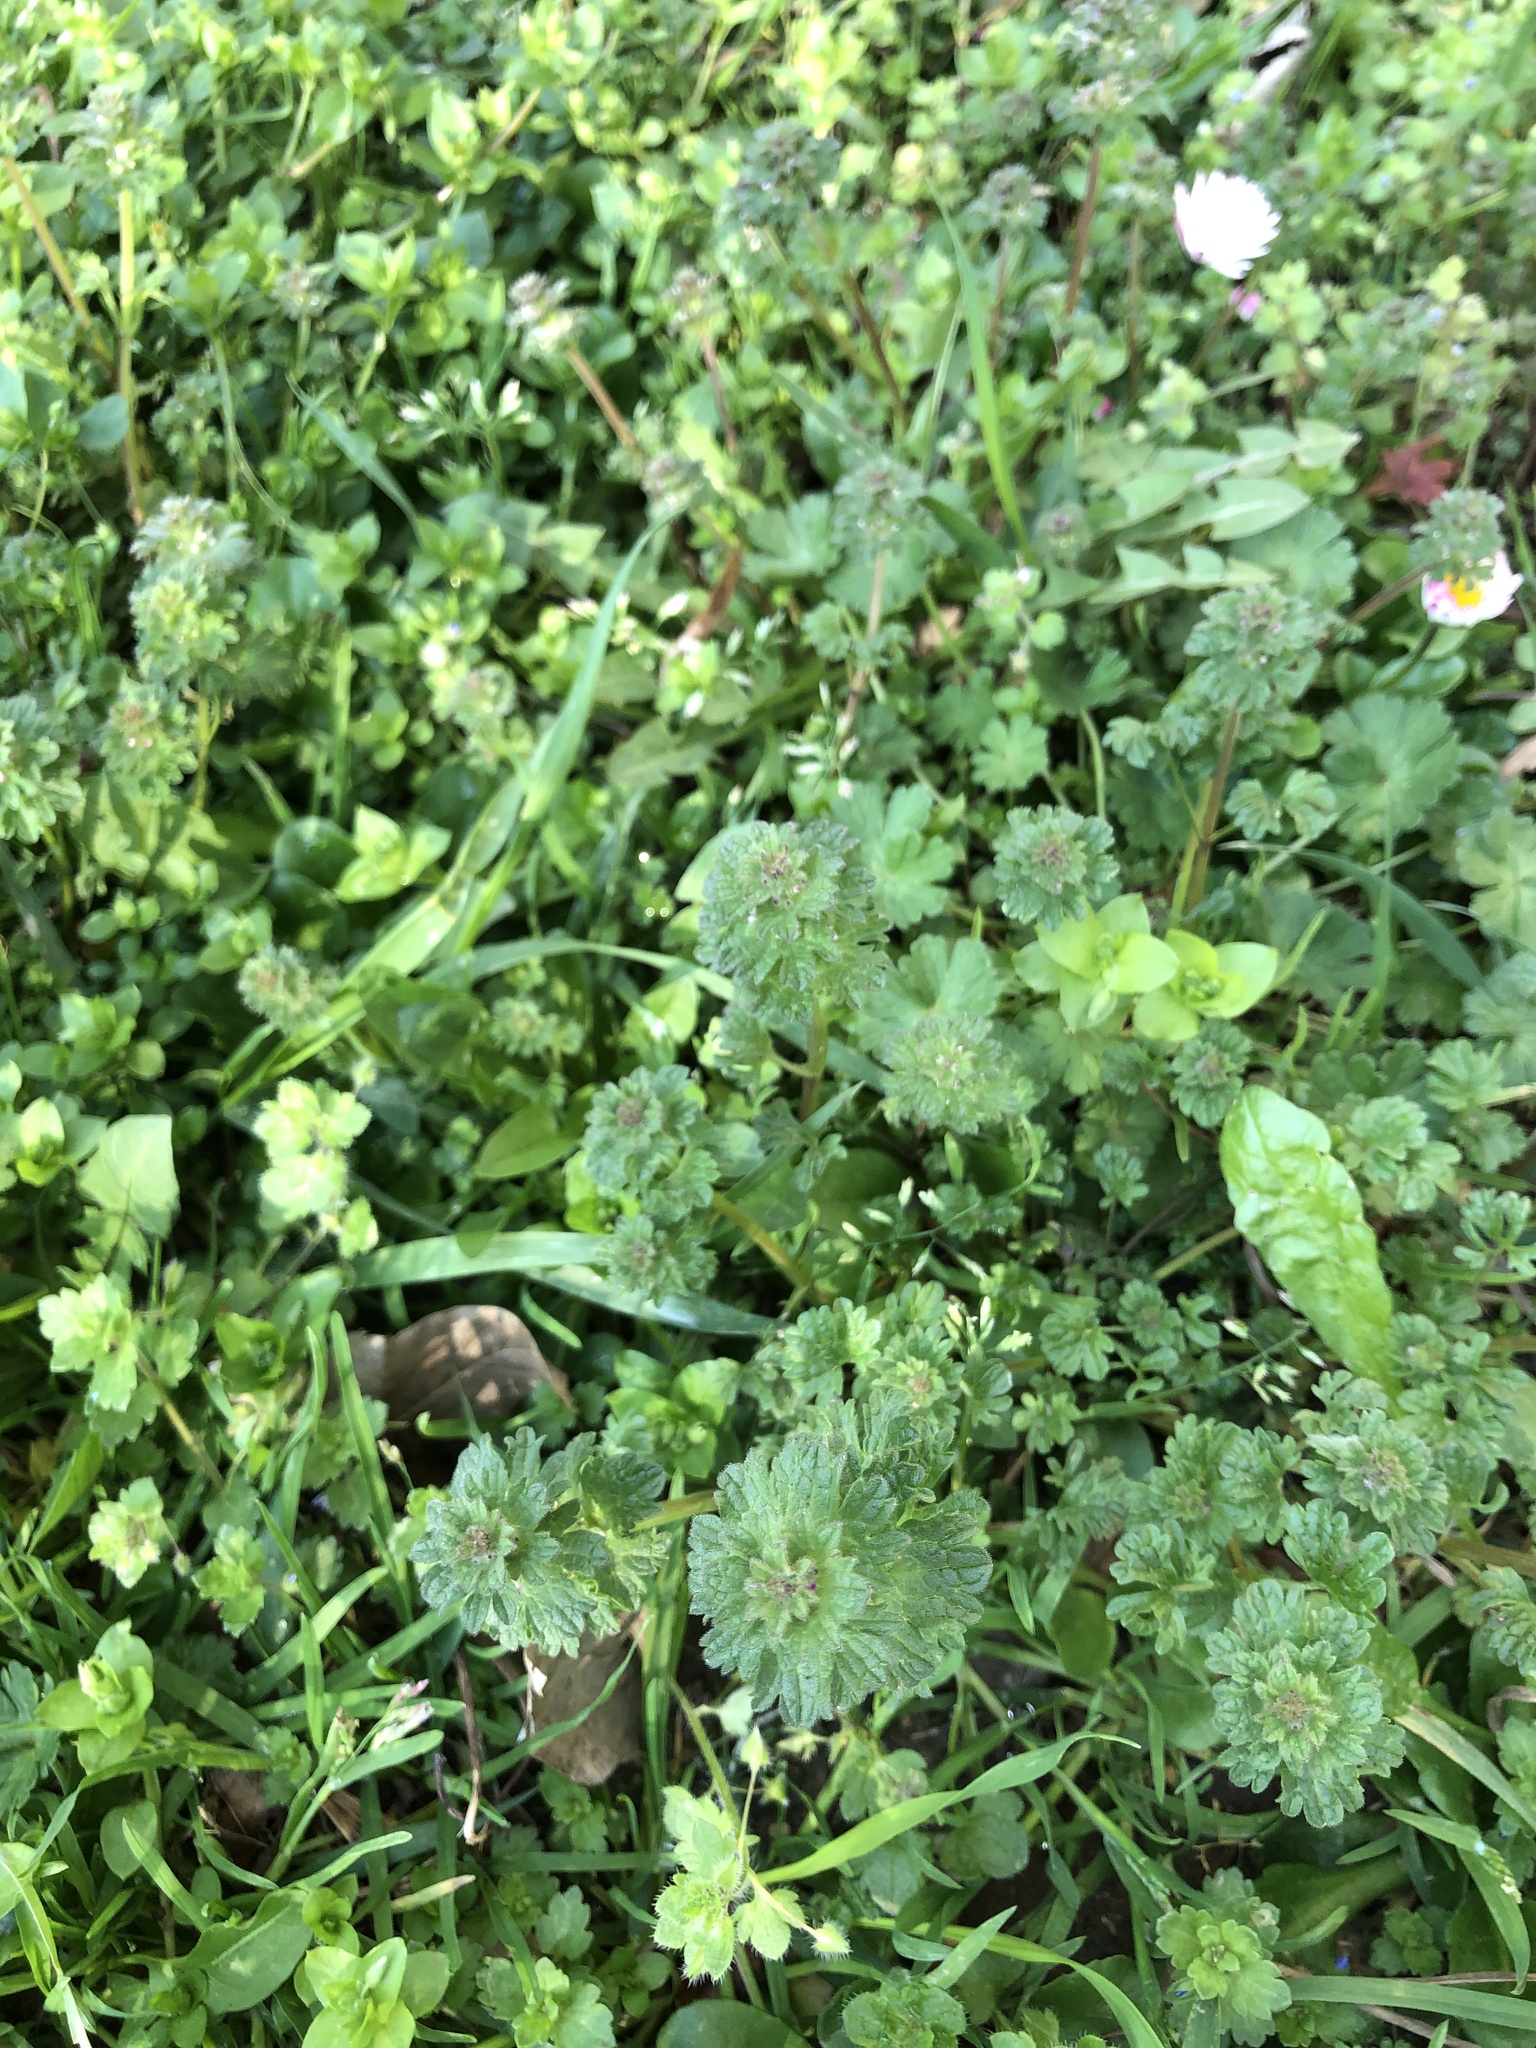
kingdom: Plantae
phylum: Tracheophyta
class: Magnoliopsida
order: Lamiales
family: Lamiaceae
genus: Lamium
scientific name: Lamium amplexicaule
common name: Henbit dead-nettle
